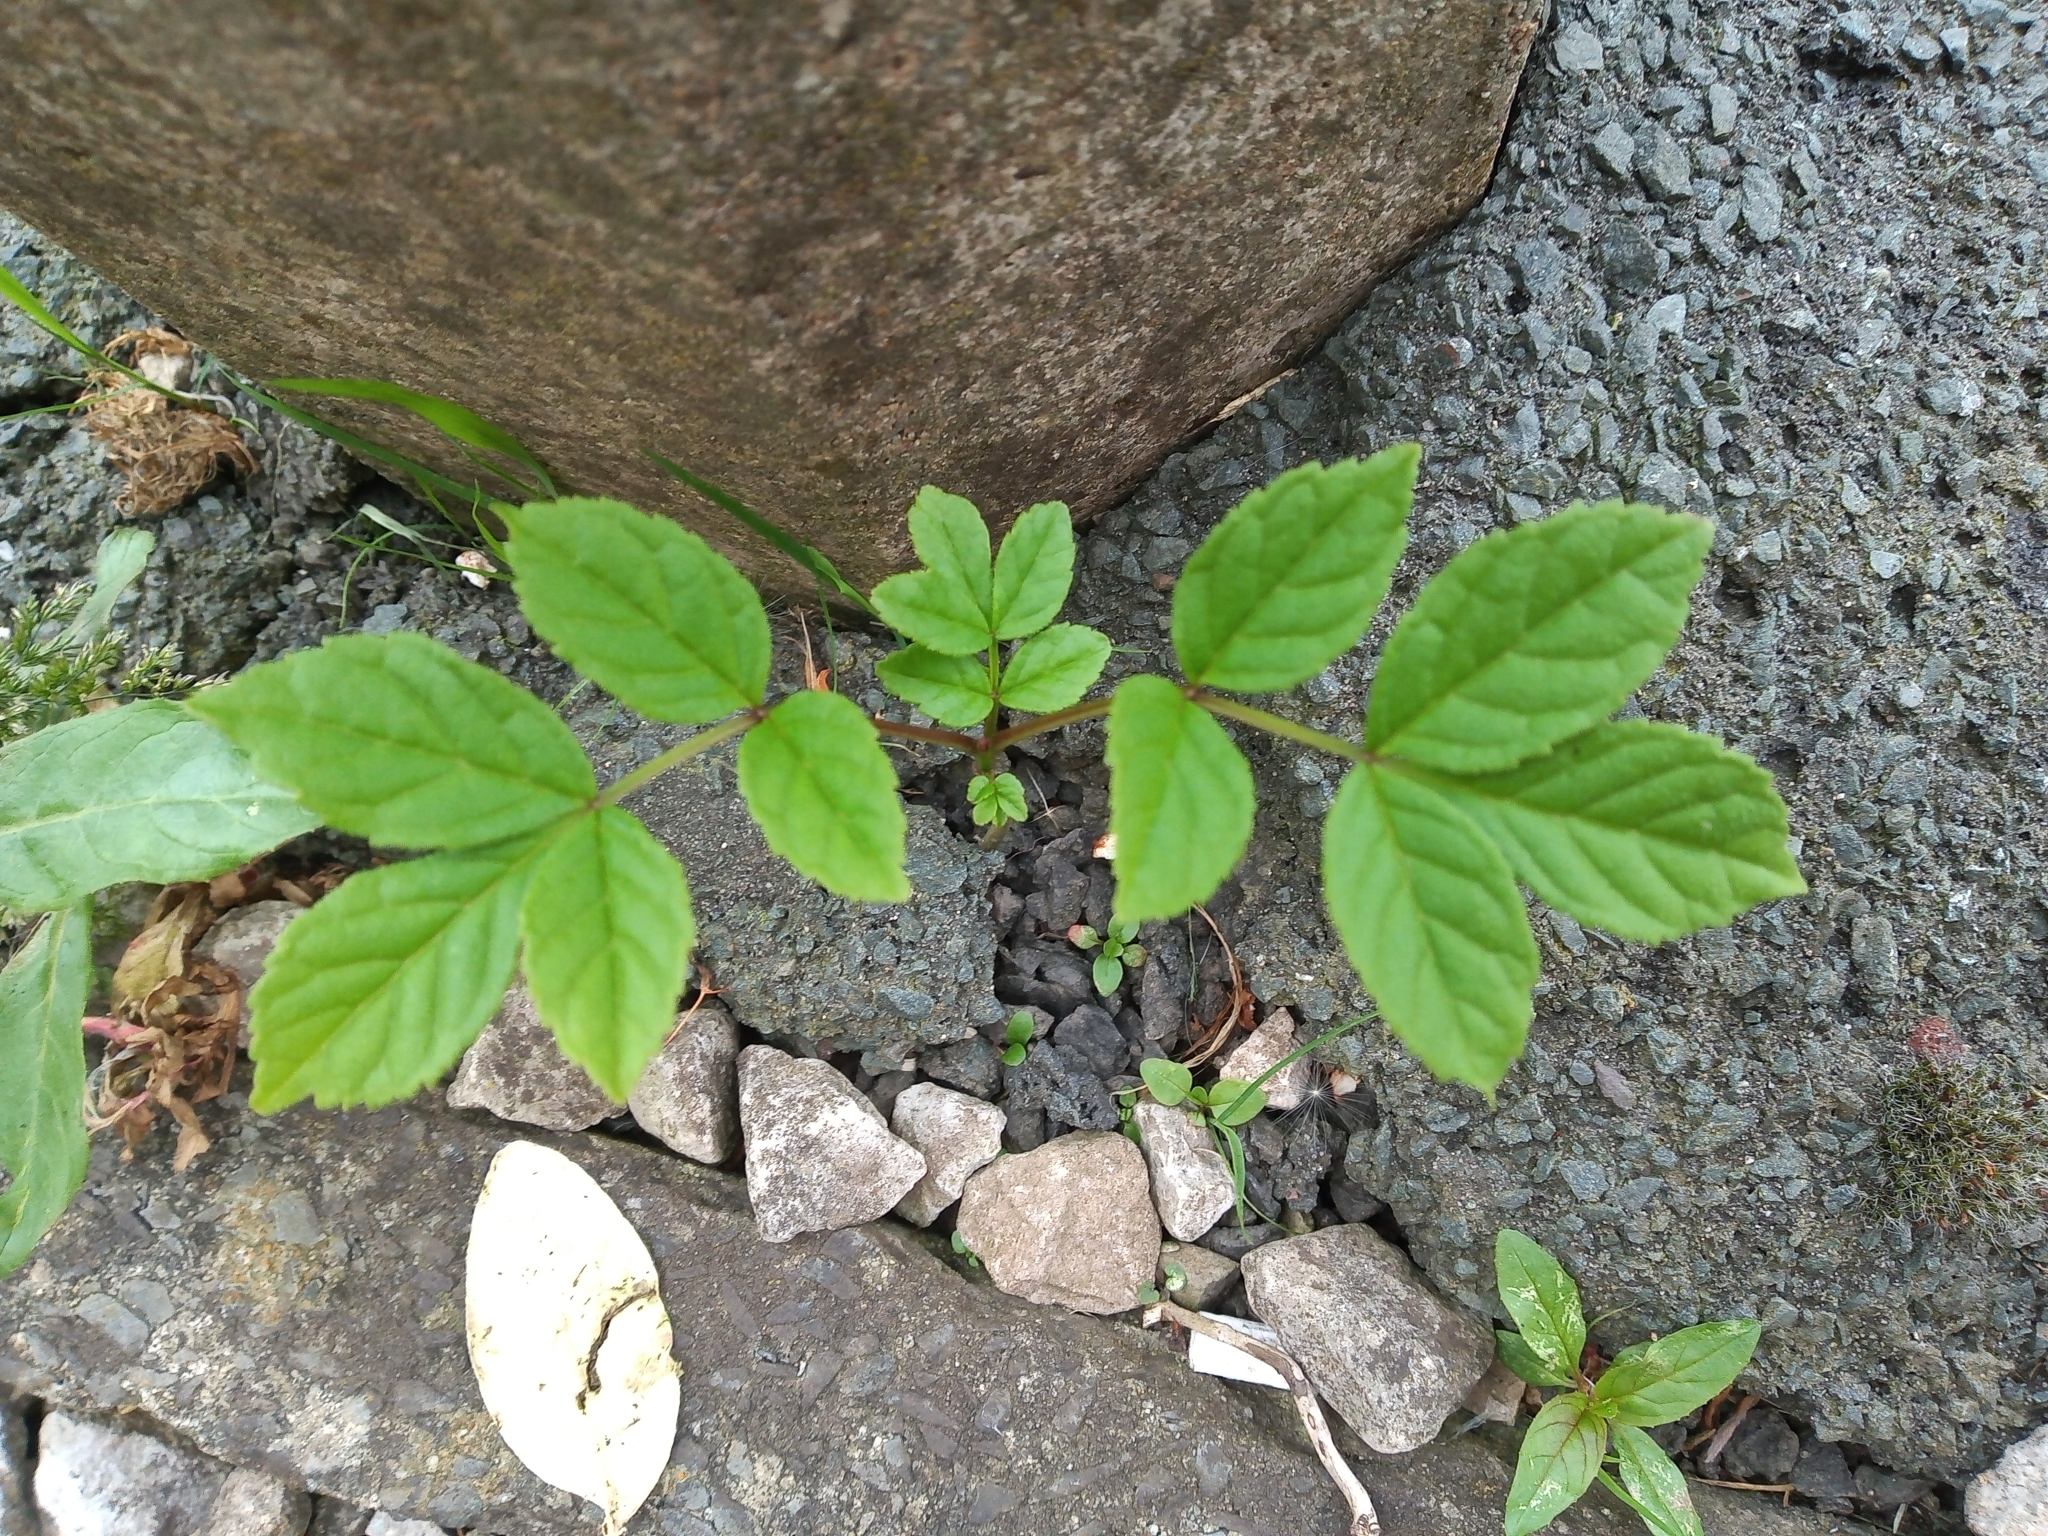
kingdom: Plantae
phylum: Tracheophyta
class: Magnoliopsida
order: Lamiales
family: Oleaceae
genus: Fraxinus
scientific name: Fraxinus excelsior
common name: European ash
